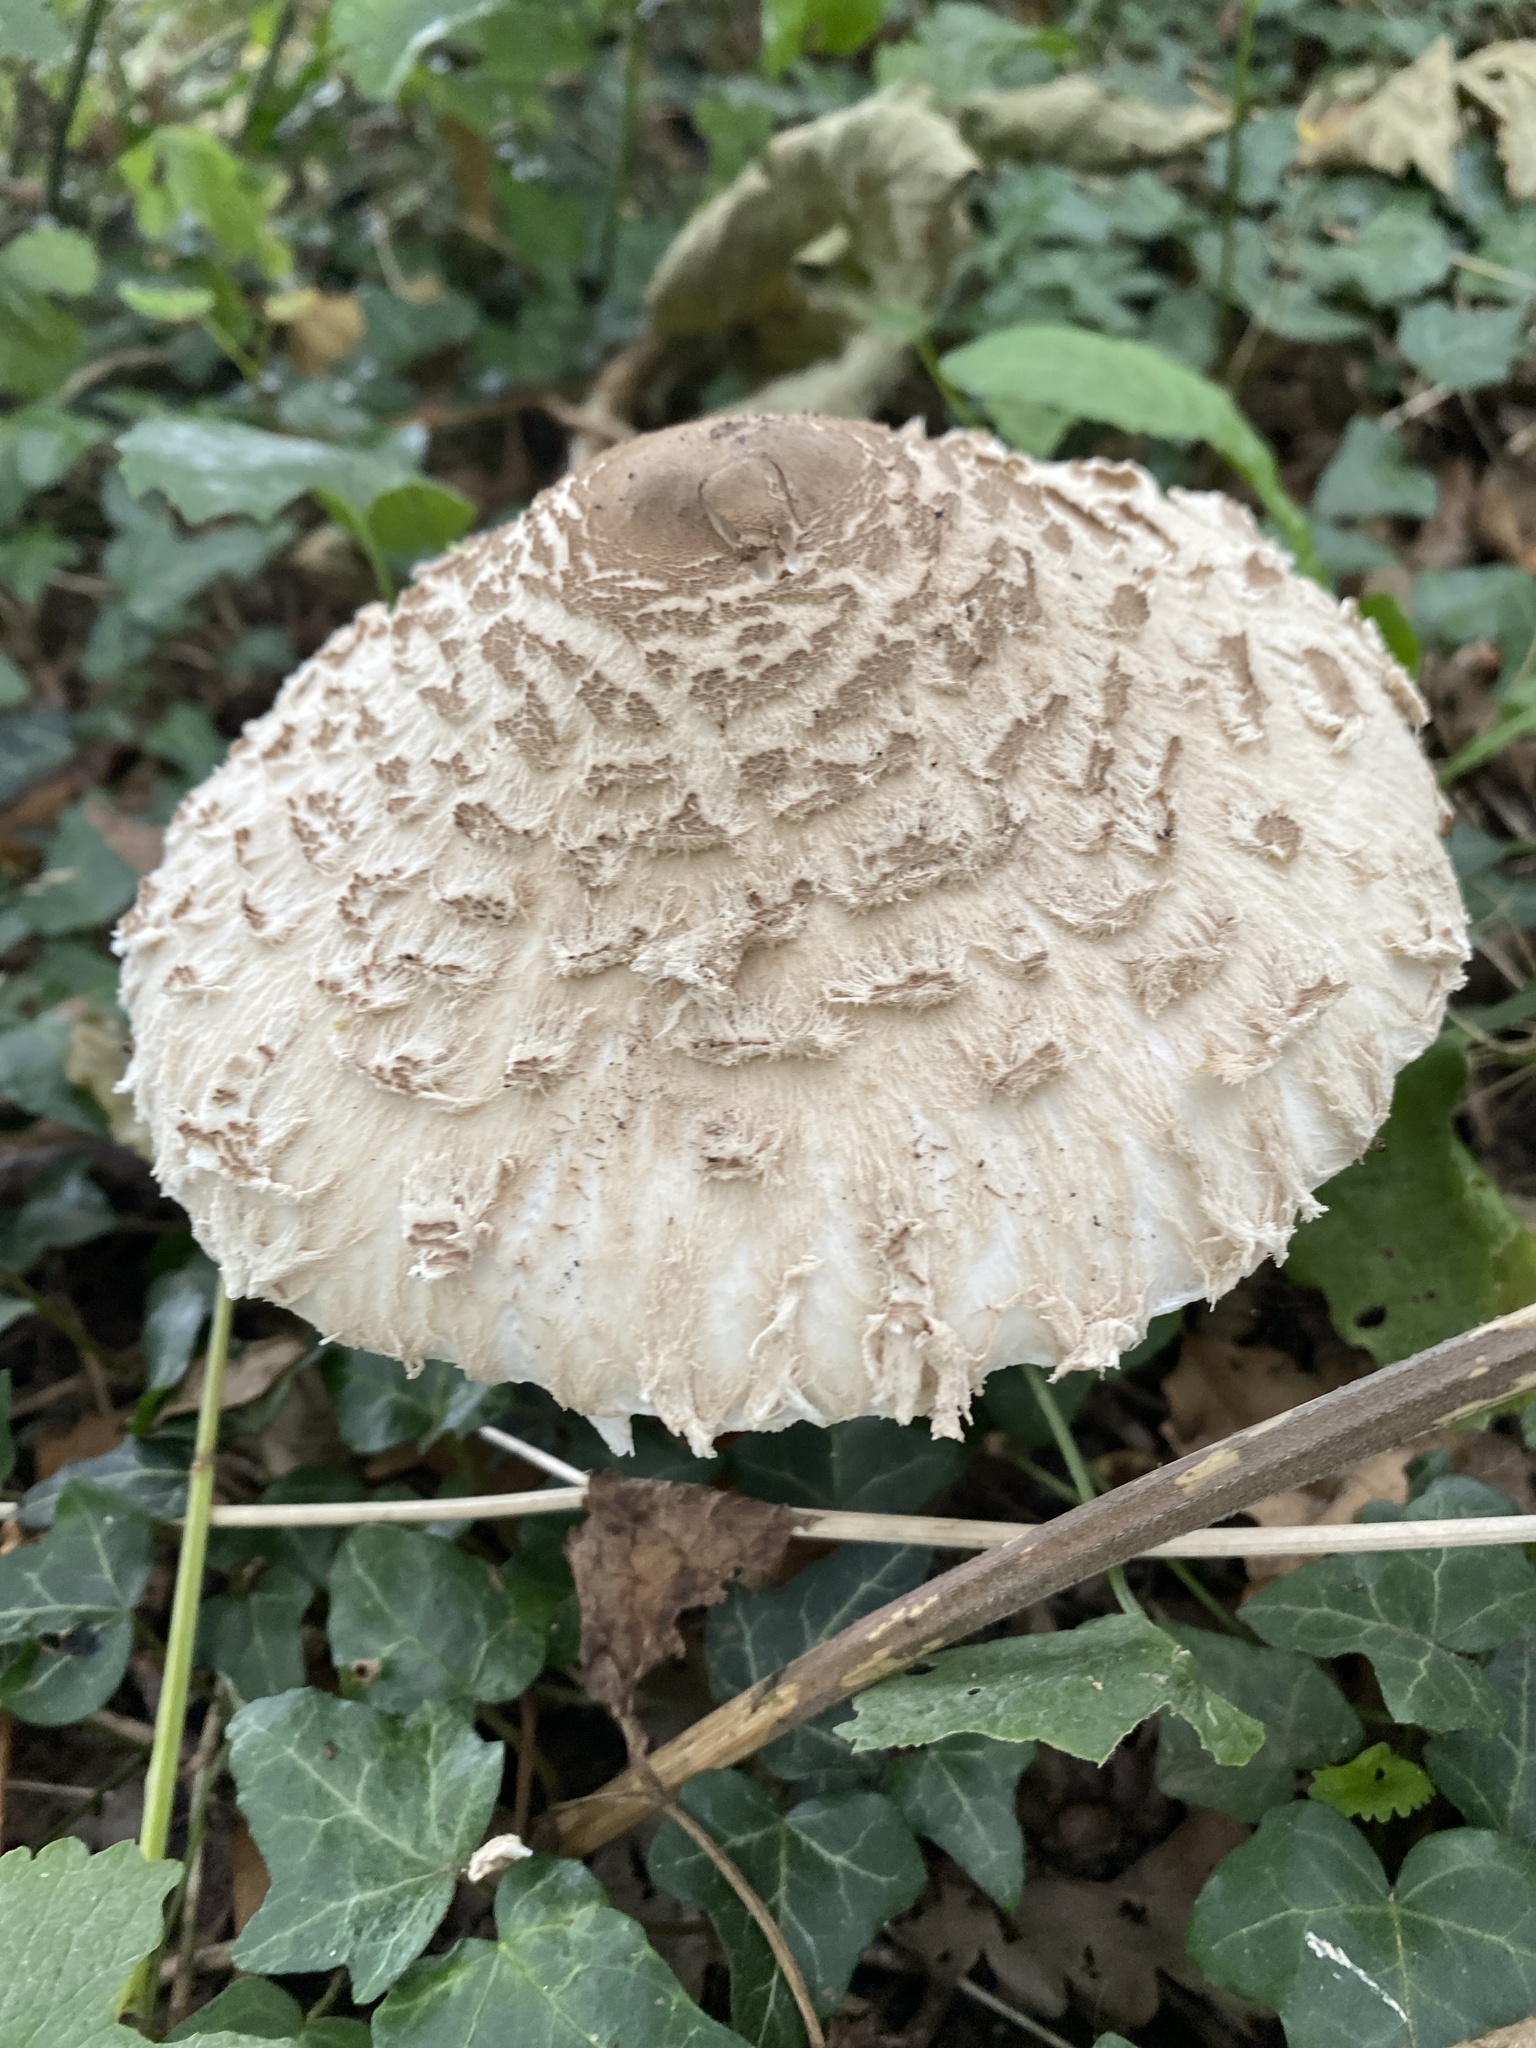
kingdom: Fungi
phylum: Basidiomycota
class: Agaricomycetes
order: Agaricales
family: Agaricaceae
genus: Chlorophyllum
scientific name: Chlorophyllum rhacodes
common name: Shaggy parasol
